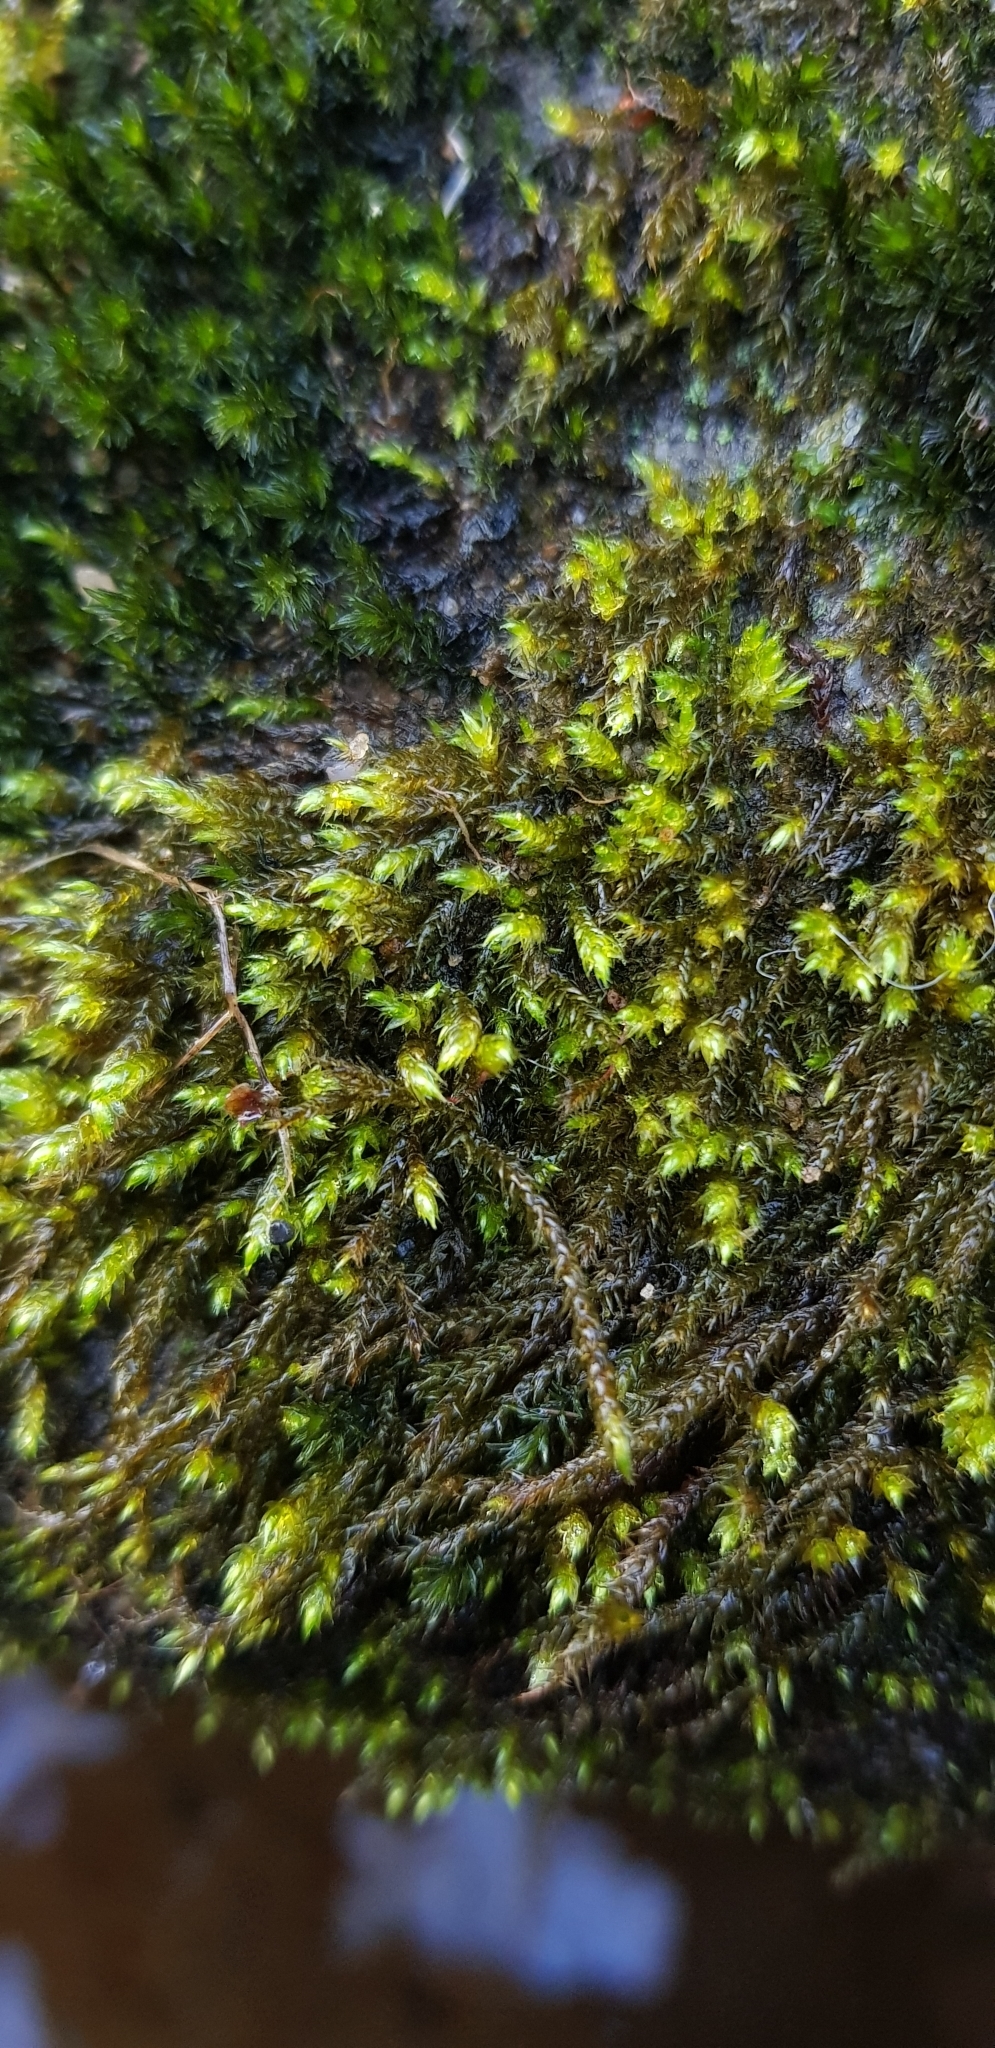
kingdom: Plantae
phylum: Bryophyta
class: Bryopsida
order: Hypnales
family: Brachytheciaceae
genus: Sciuro-hypnum
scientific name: Sciuro-hypnum plumosum
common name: Rusty feather-moss
